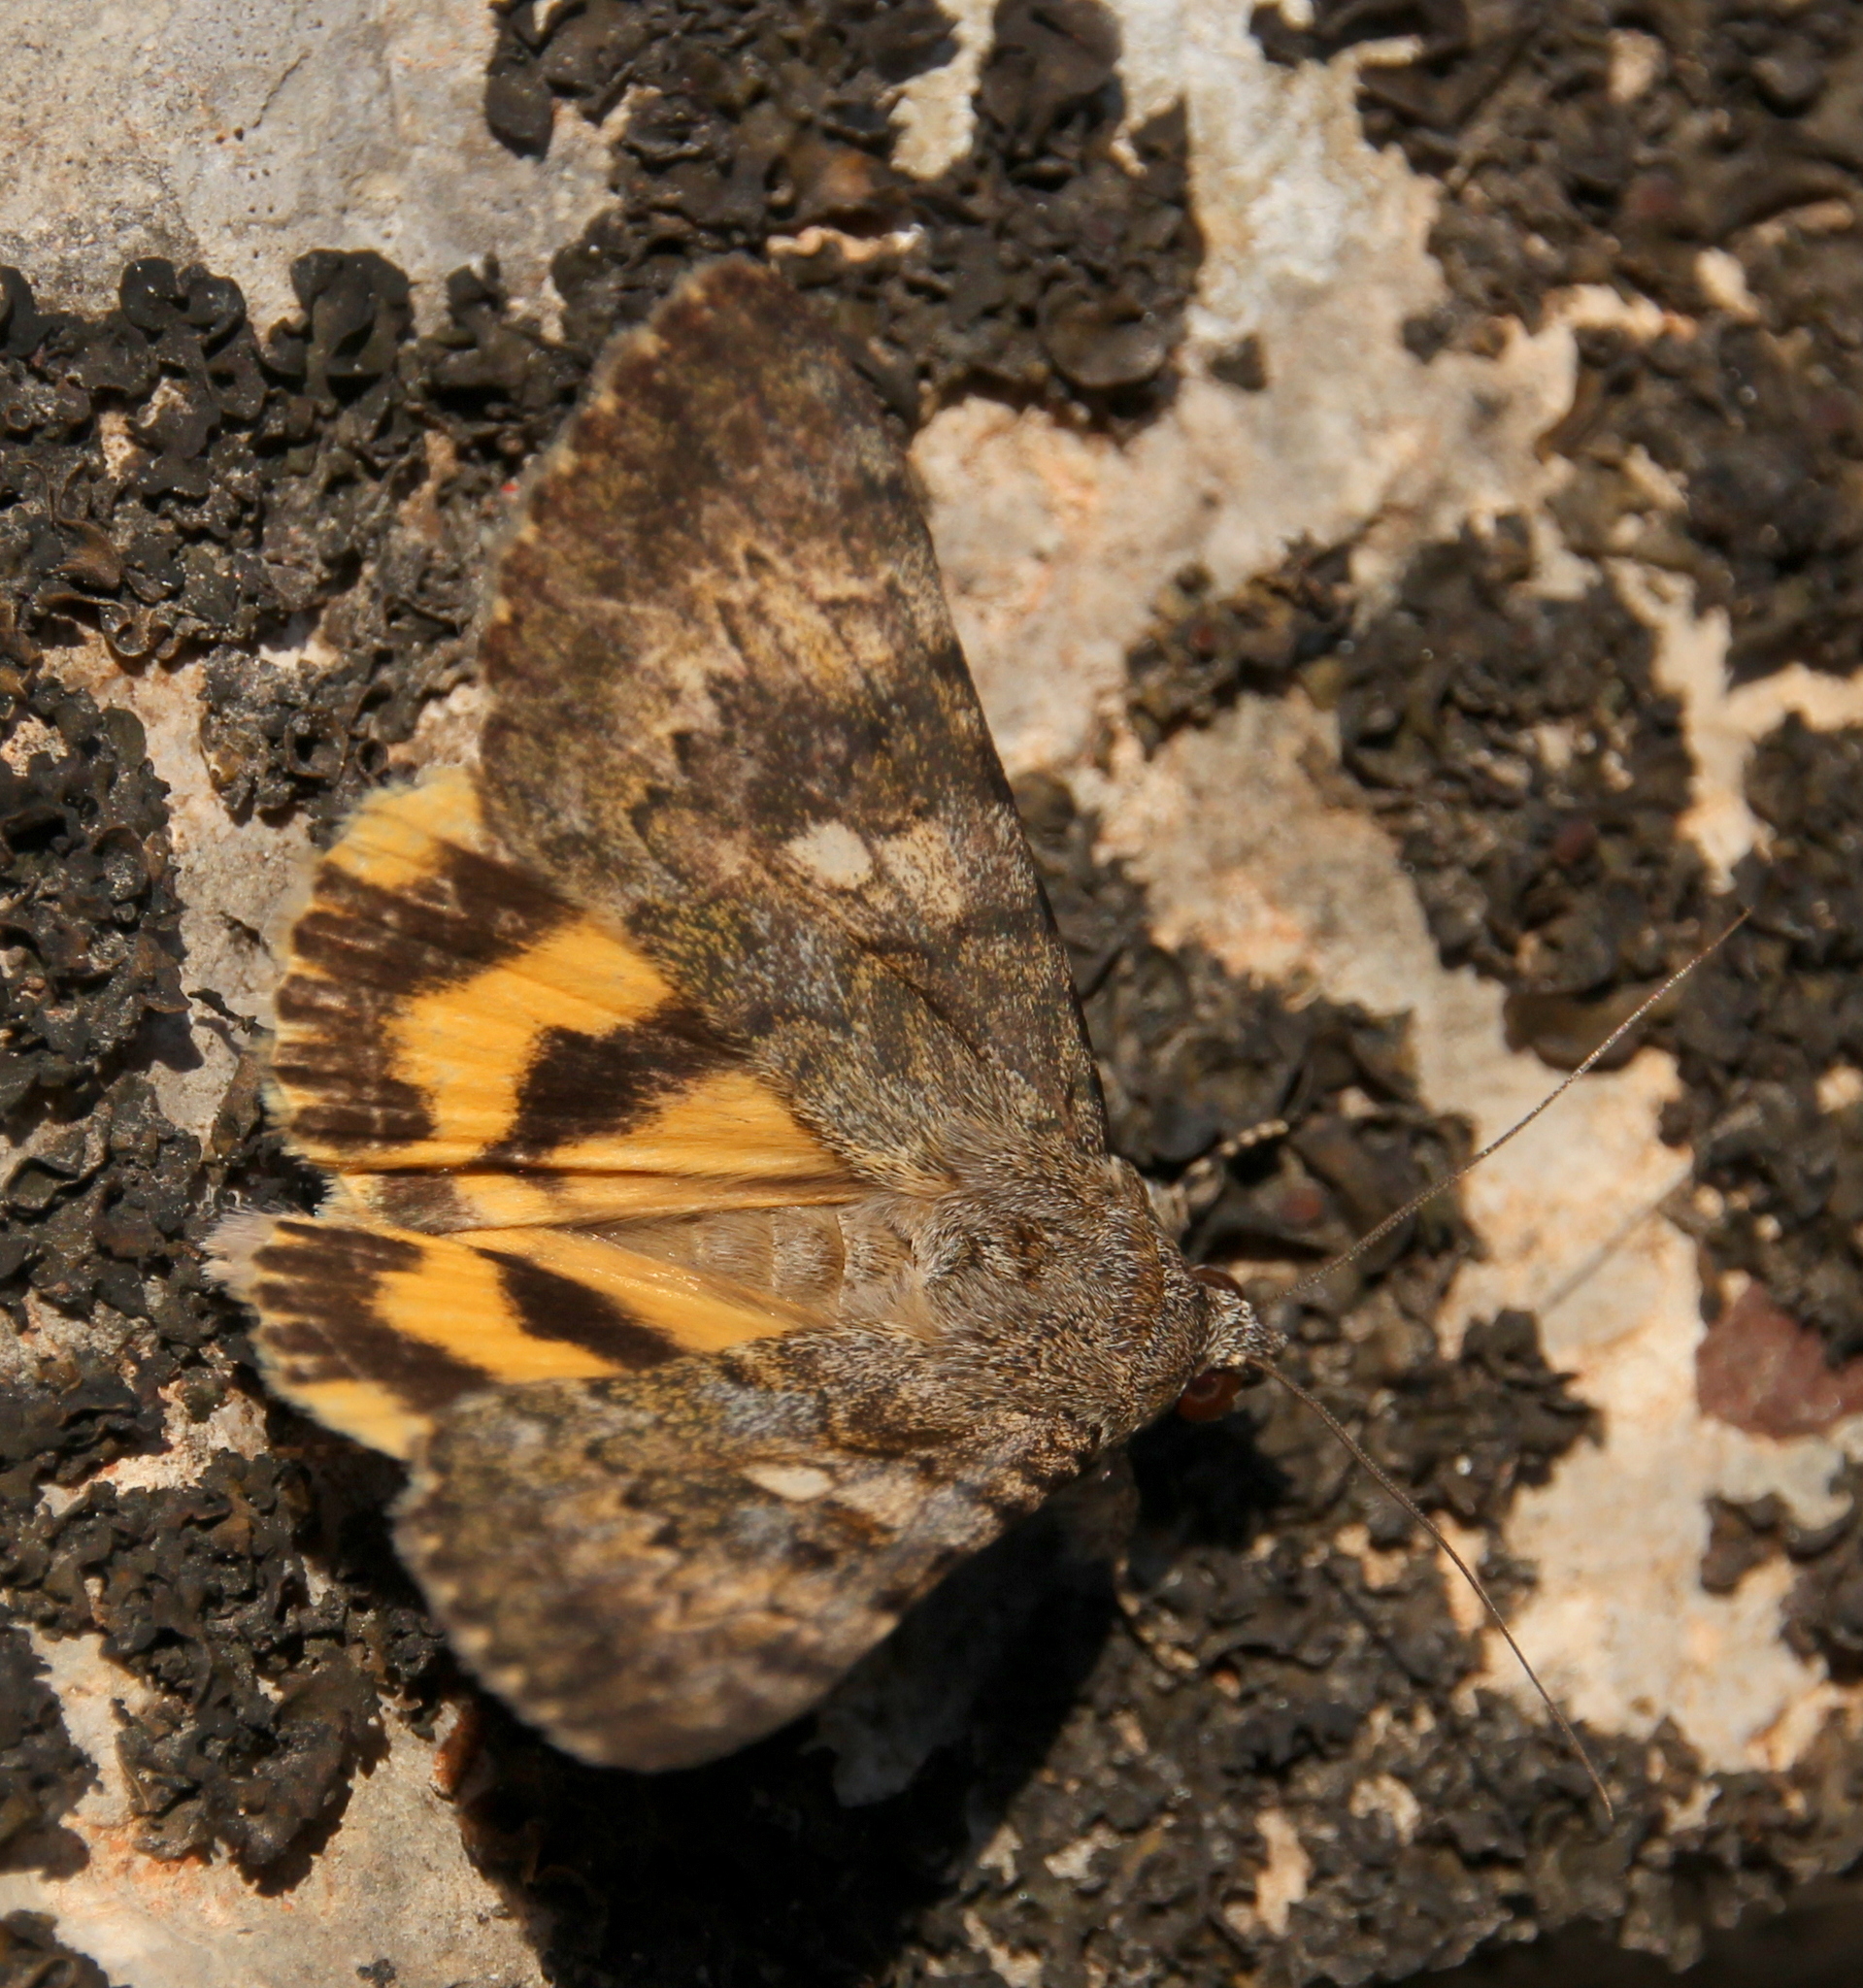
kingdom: Animalia
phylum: Arthropoda
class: Insecta
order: Lepidoptera
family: Erebidae
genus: Catocala
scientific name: Catocala nymphaea
